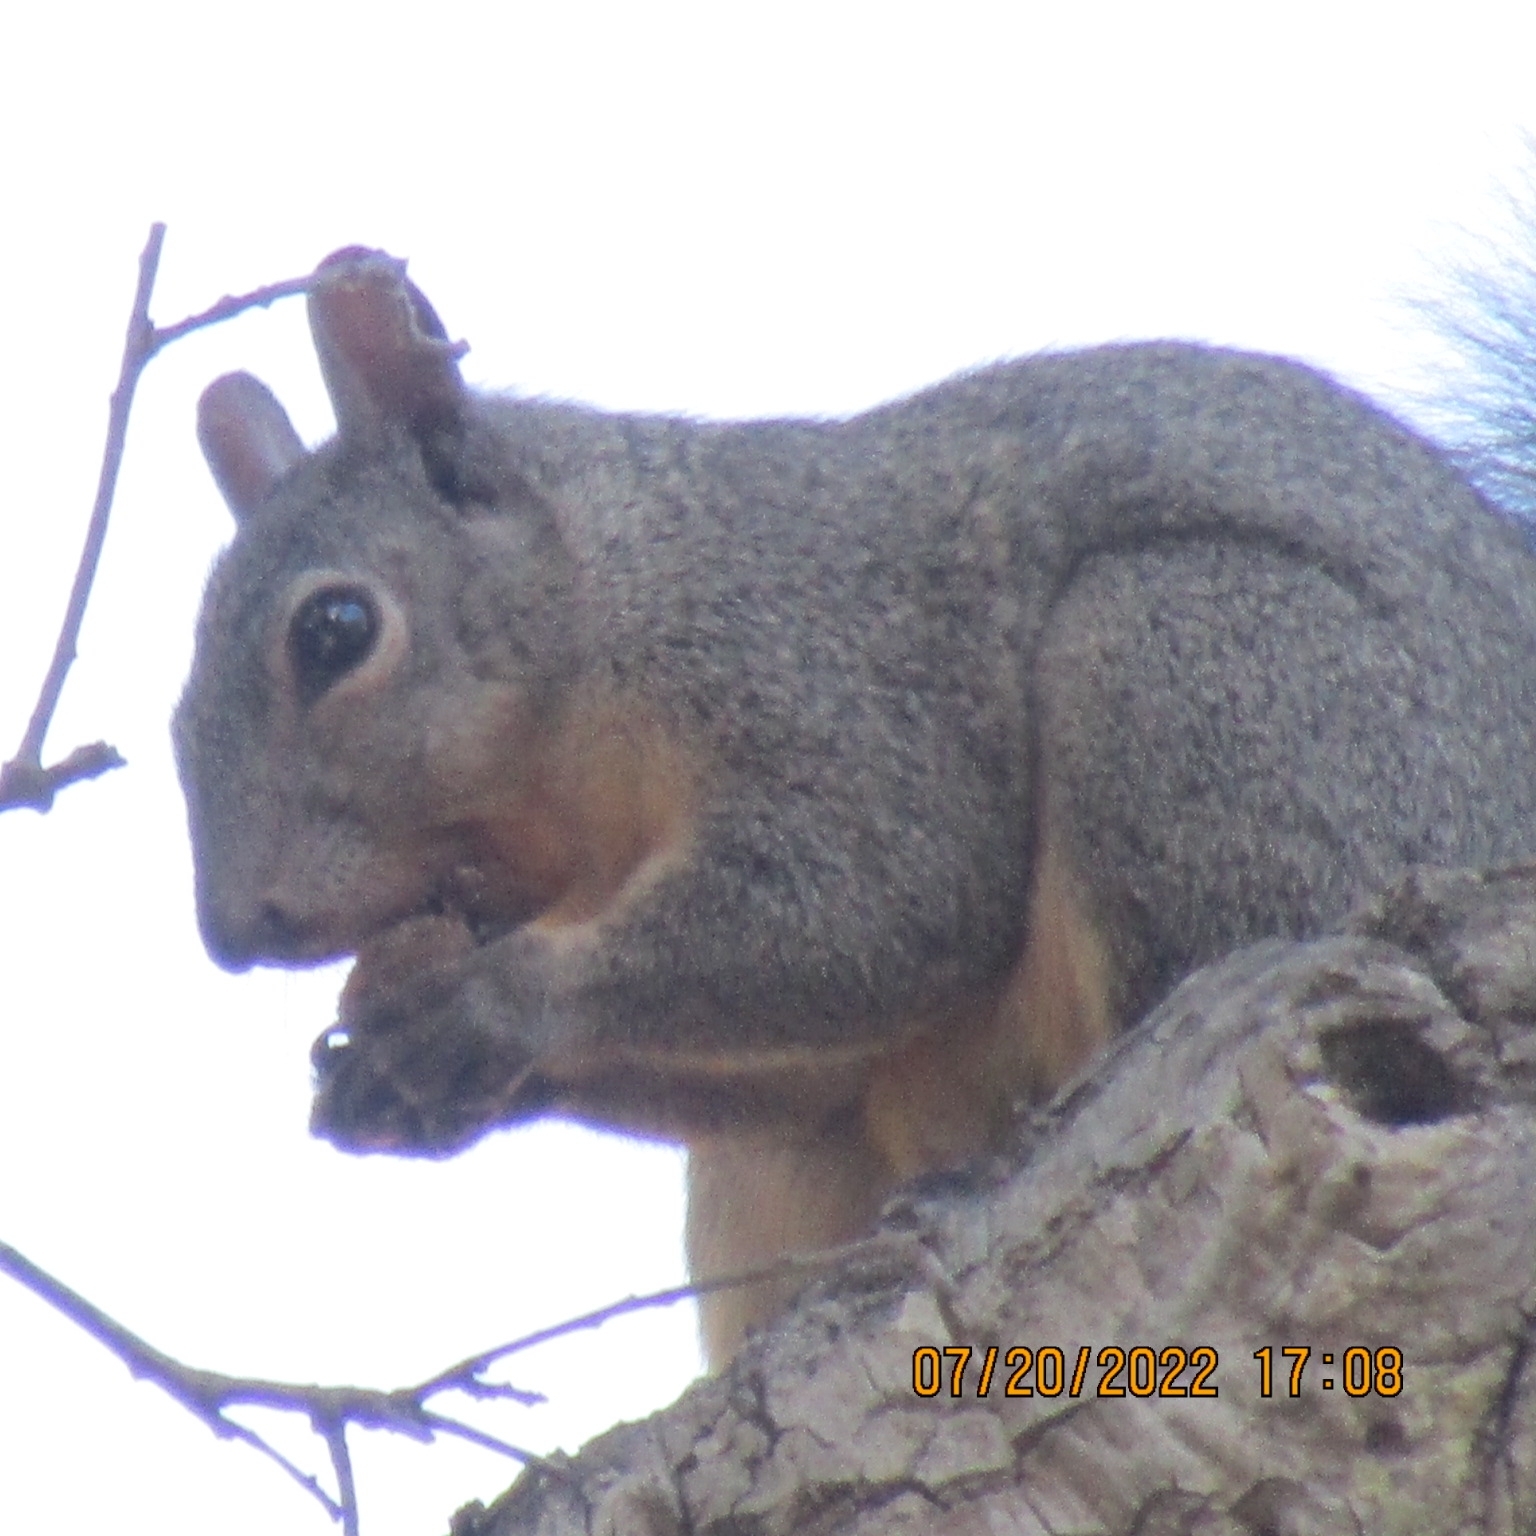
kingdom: Animalia
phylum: Chordata
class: Mammalia
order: Rodentia
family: Sciuridae
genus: Sciurus
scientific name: Sciurus niger
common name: Fox squirrel
